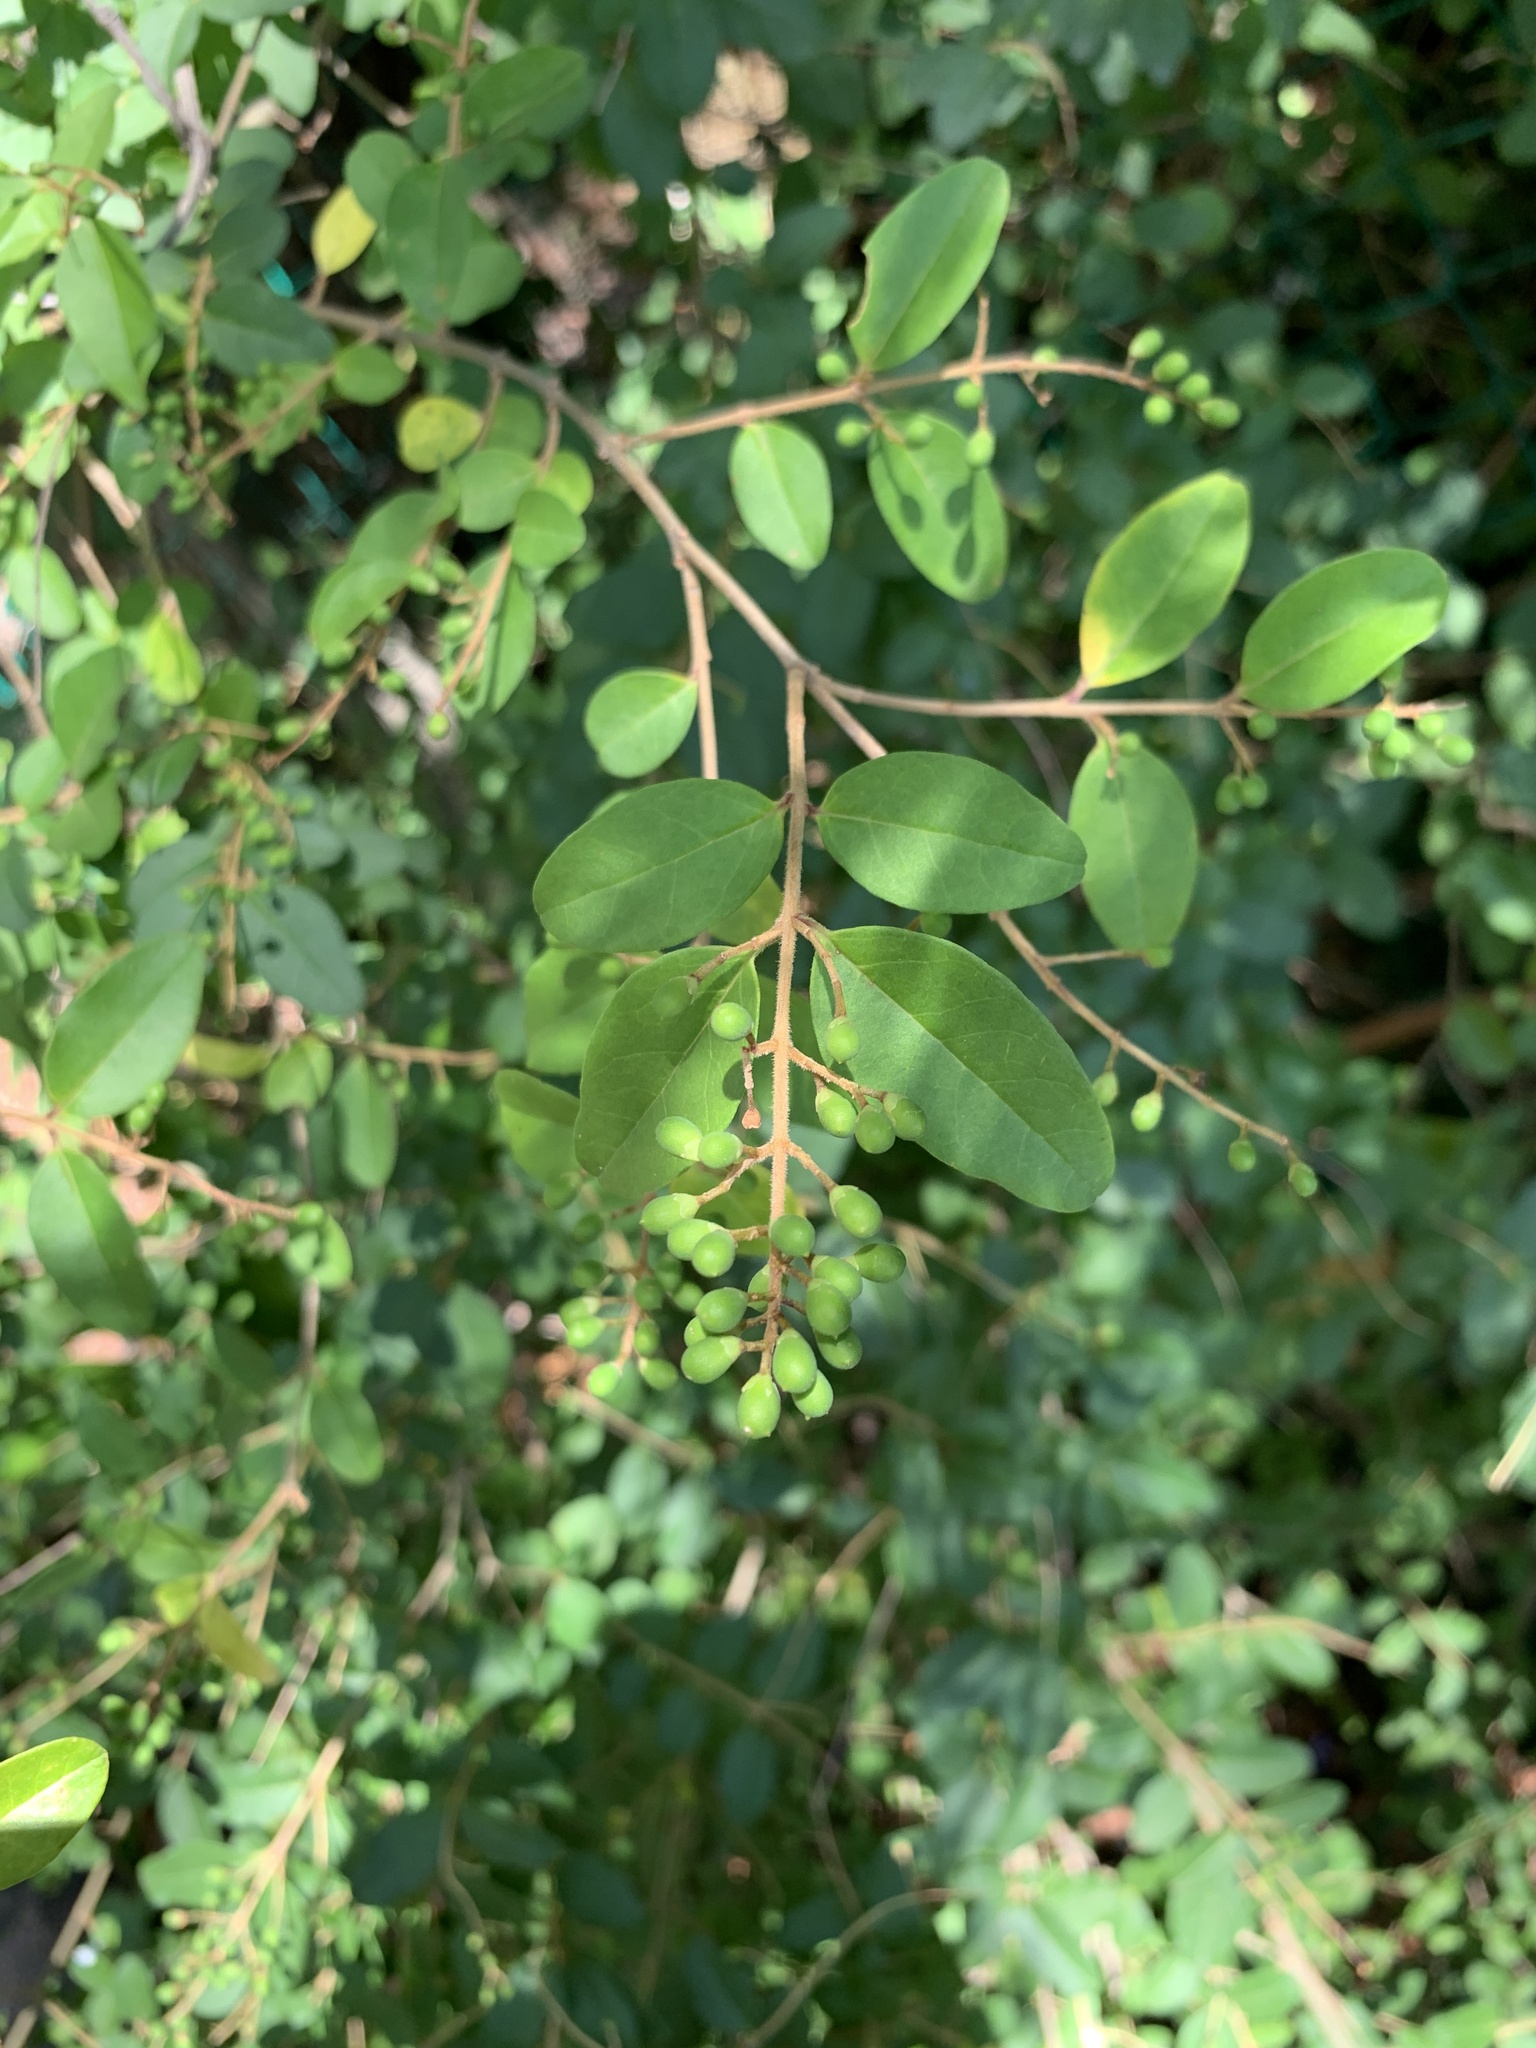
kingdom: Plantae
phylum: Tracheophyta
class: Magnoliopsida
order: Lamiales
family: Oleaceae
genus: Ligustrum
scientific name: Ligustrum sinense
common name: Chinese privet
